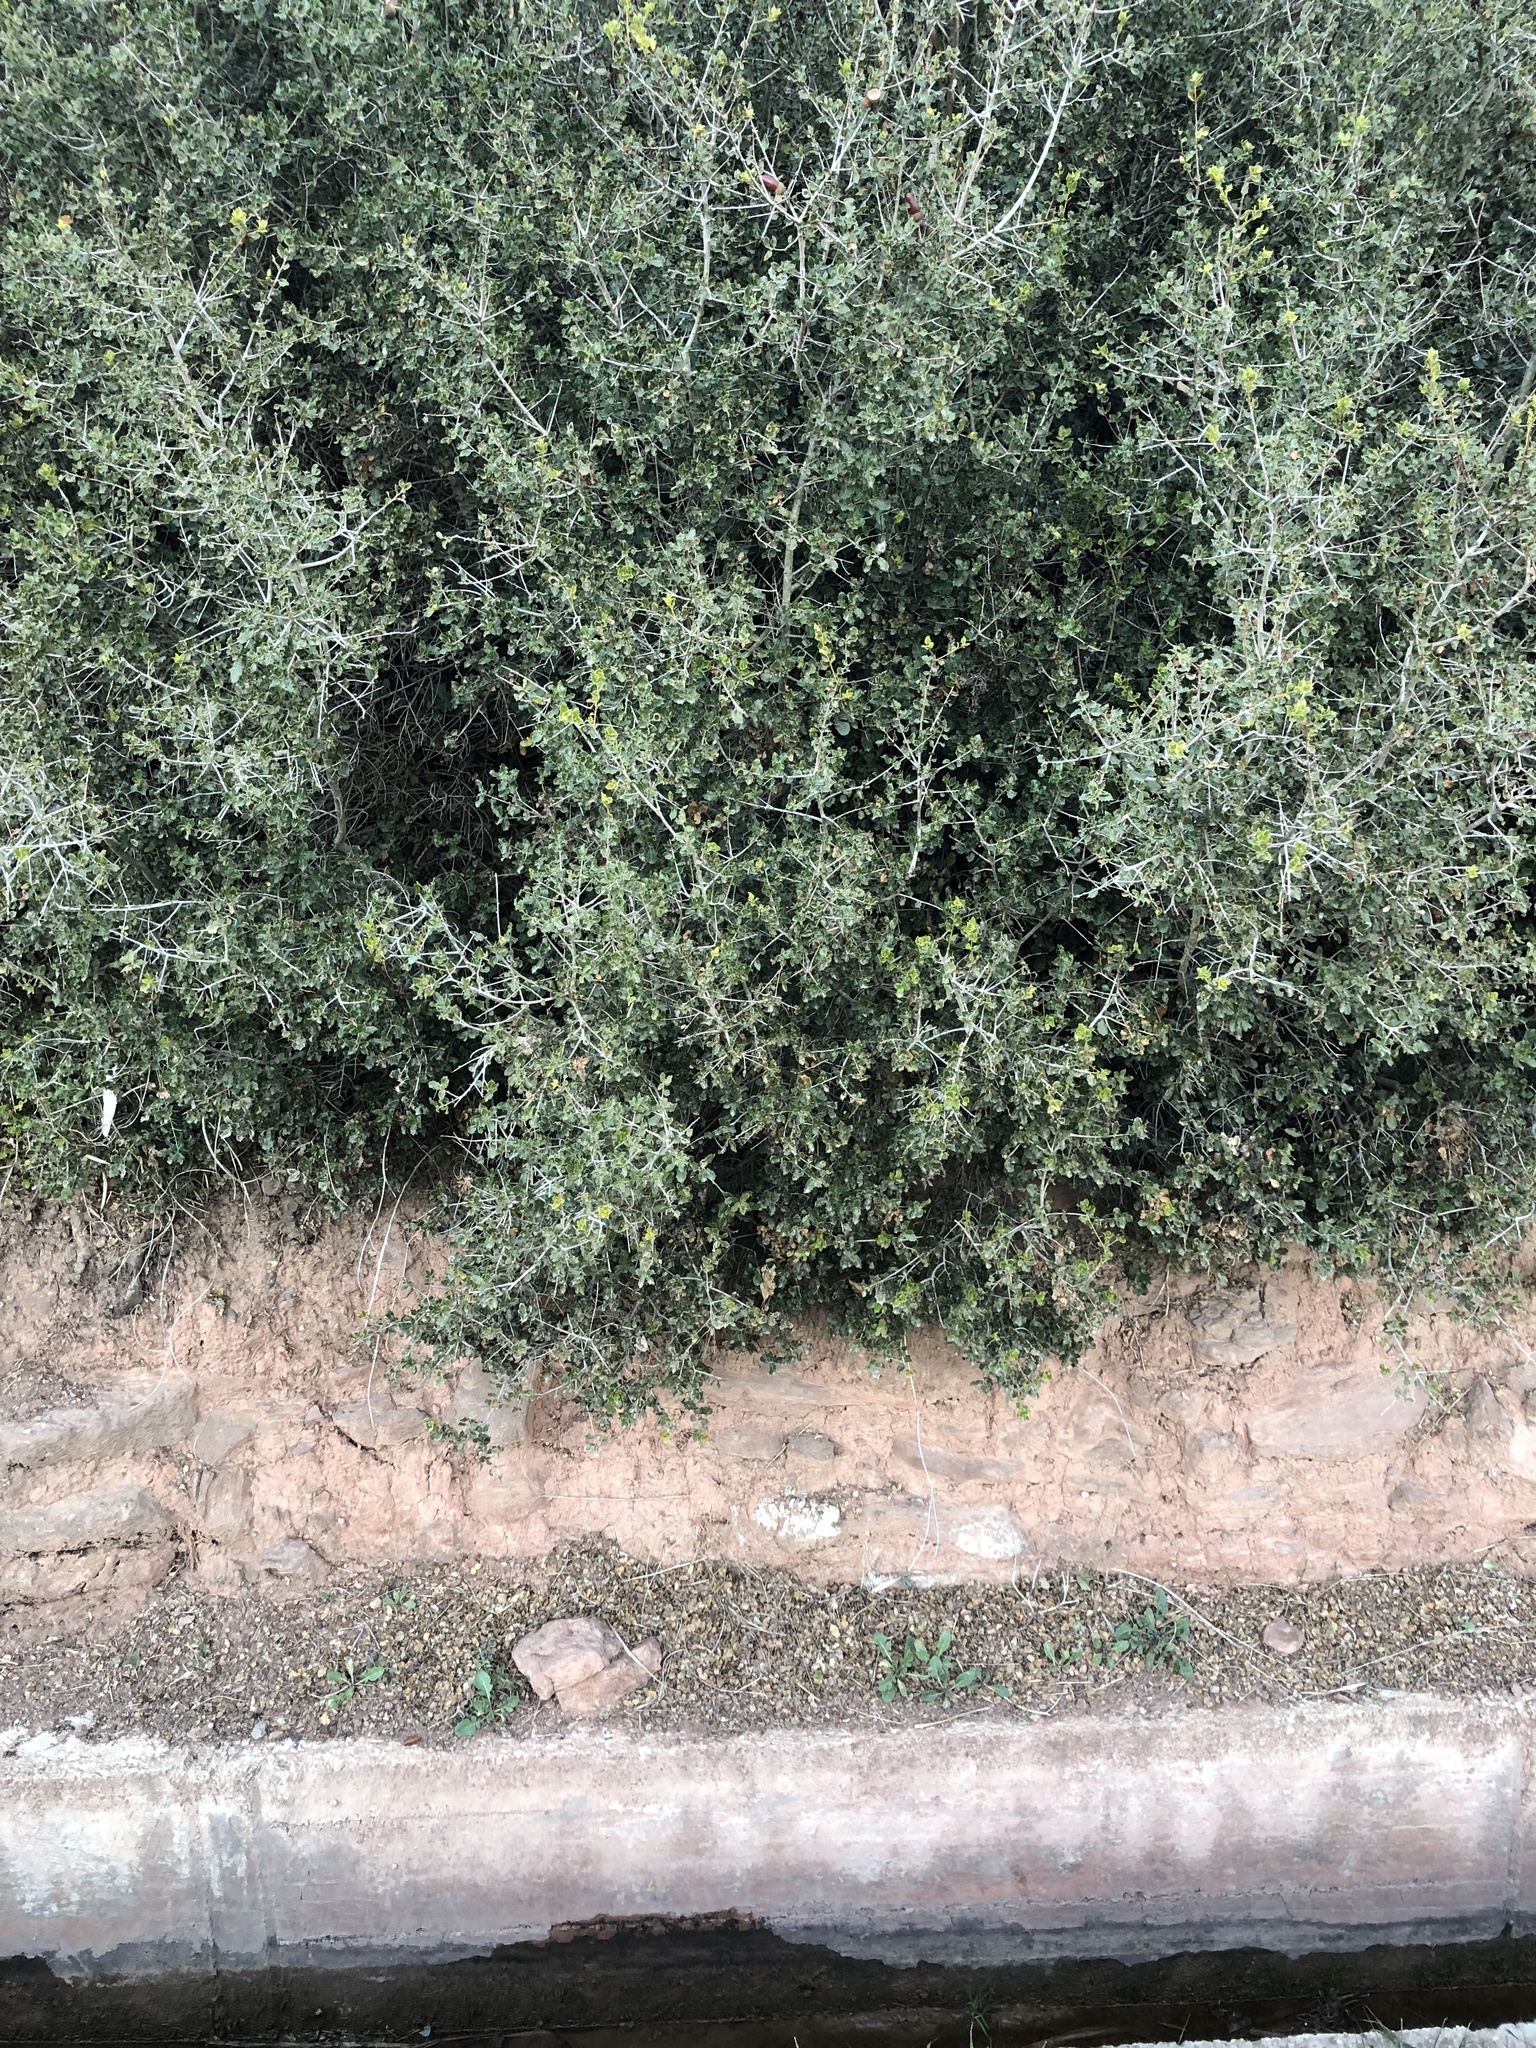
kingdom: Plantae
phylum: Tracheophyta
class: Magnoliopsida
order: Fagales
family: Fagaceae
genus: Quercus
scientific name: Quercus coccifera
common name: Kermes oak
